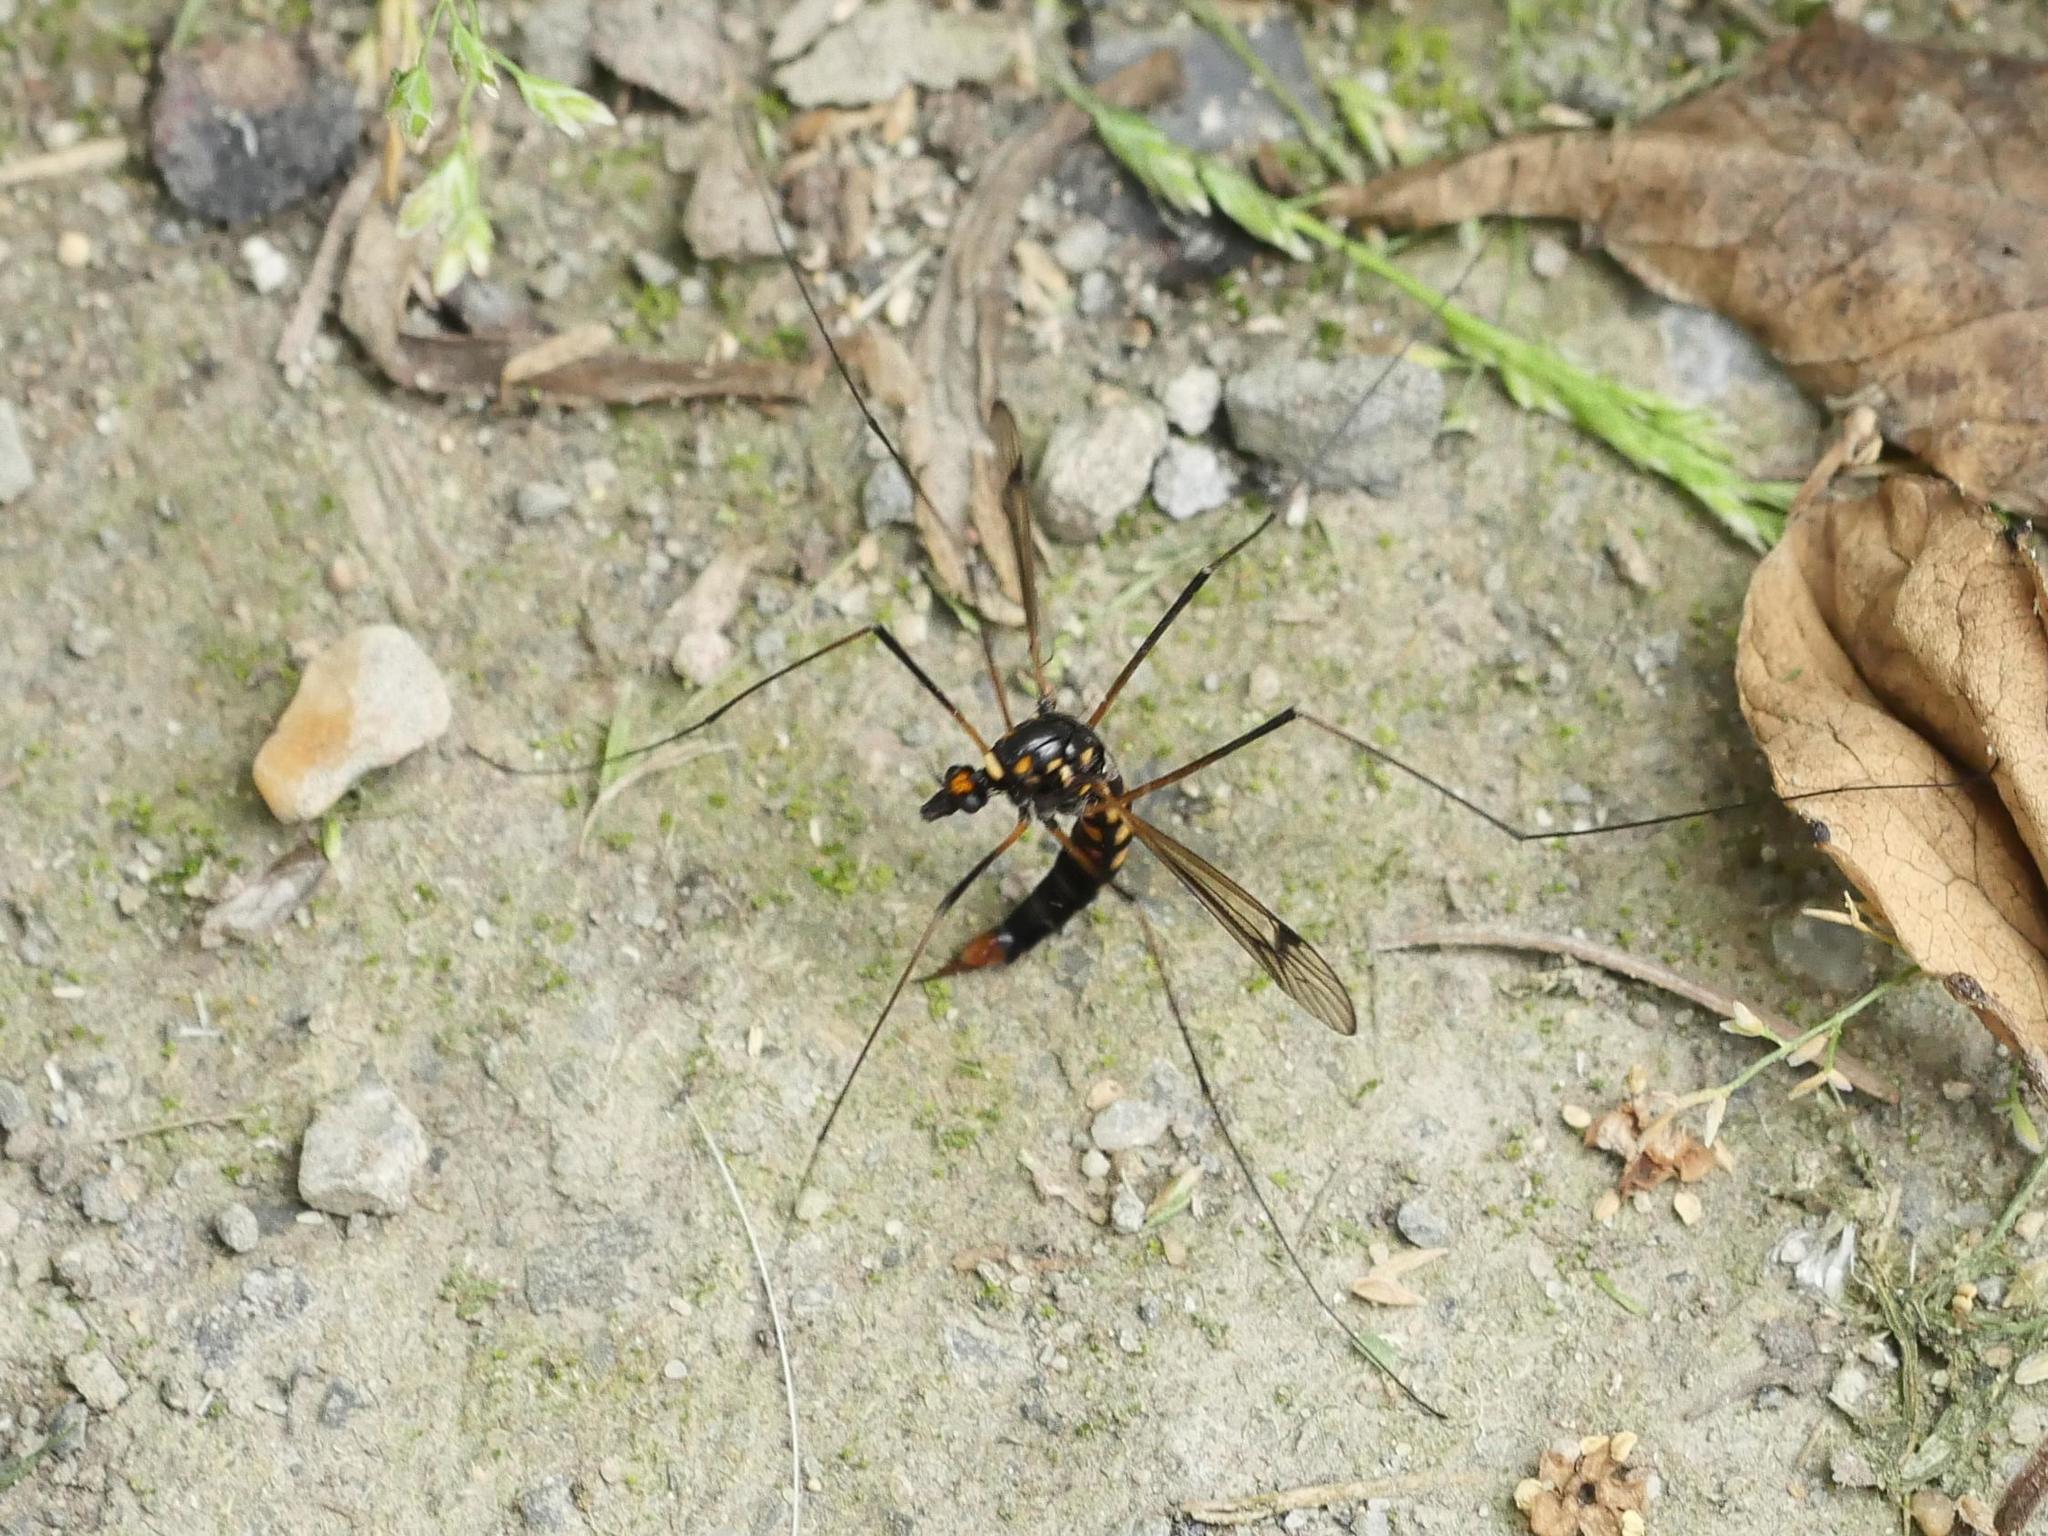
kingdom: Animalia
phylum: Arthropoda
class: Insecta
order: Diptera
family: Tipulidae
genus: Nephrotoma
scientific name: Nephrotoma crocata
